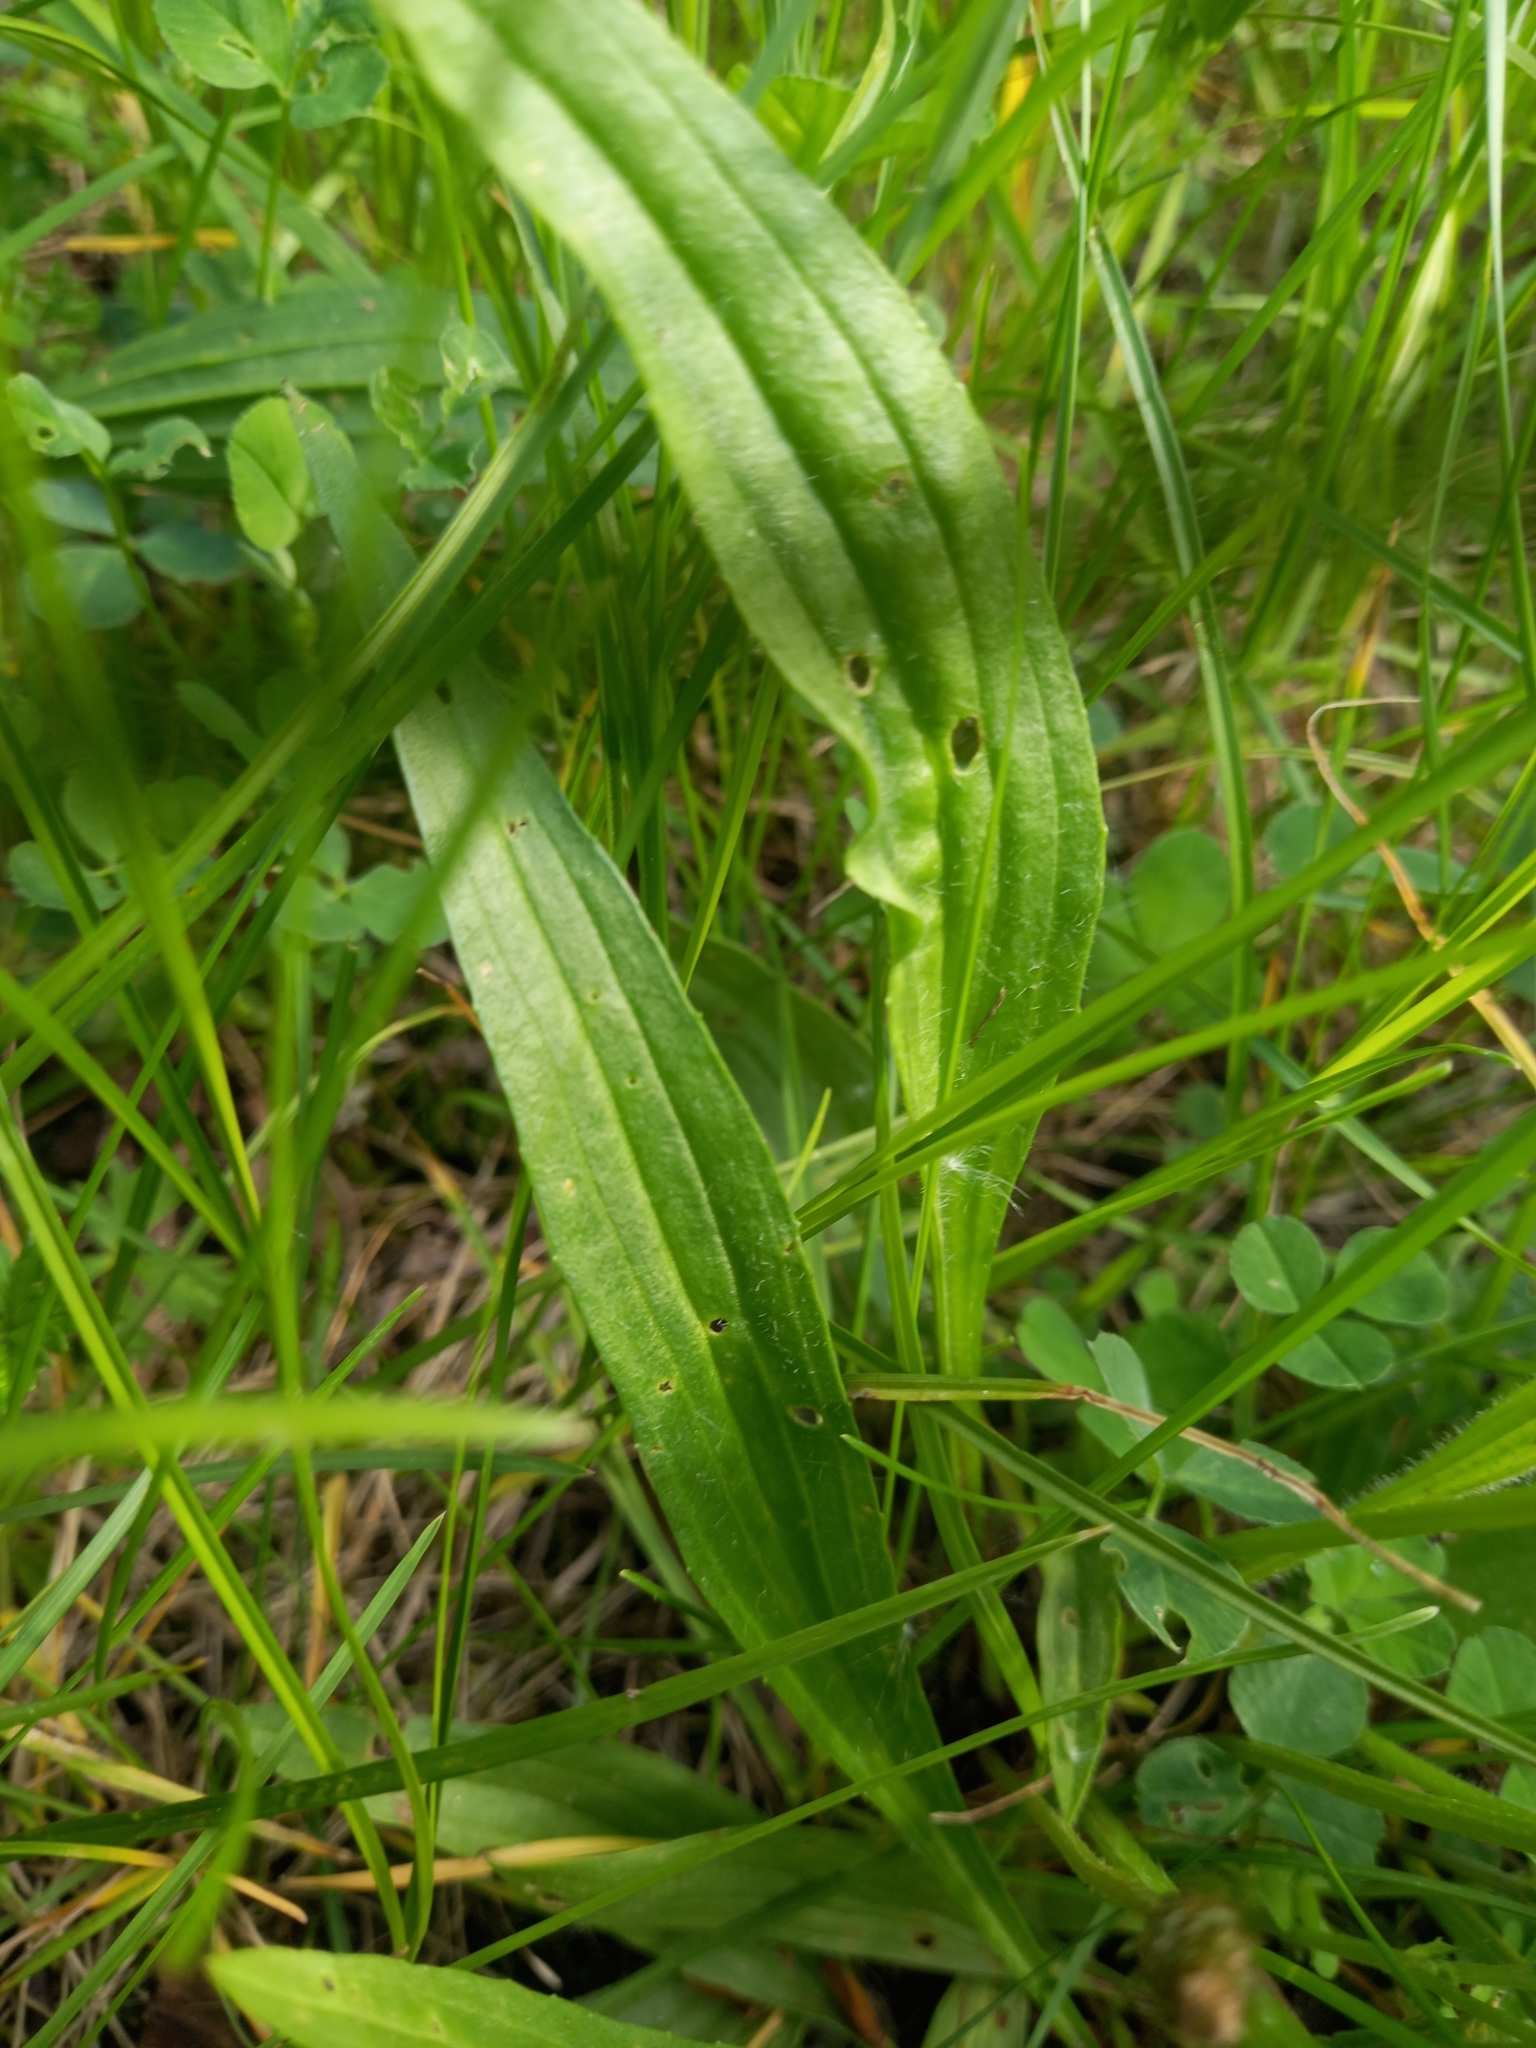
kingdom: Plantae
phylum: Tracheophyta
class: Magnoliopsida
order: Lamiales
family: Plantaginaceae
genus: Plantago
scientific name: Plantago lanceolata
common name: Ribwort plantain
